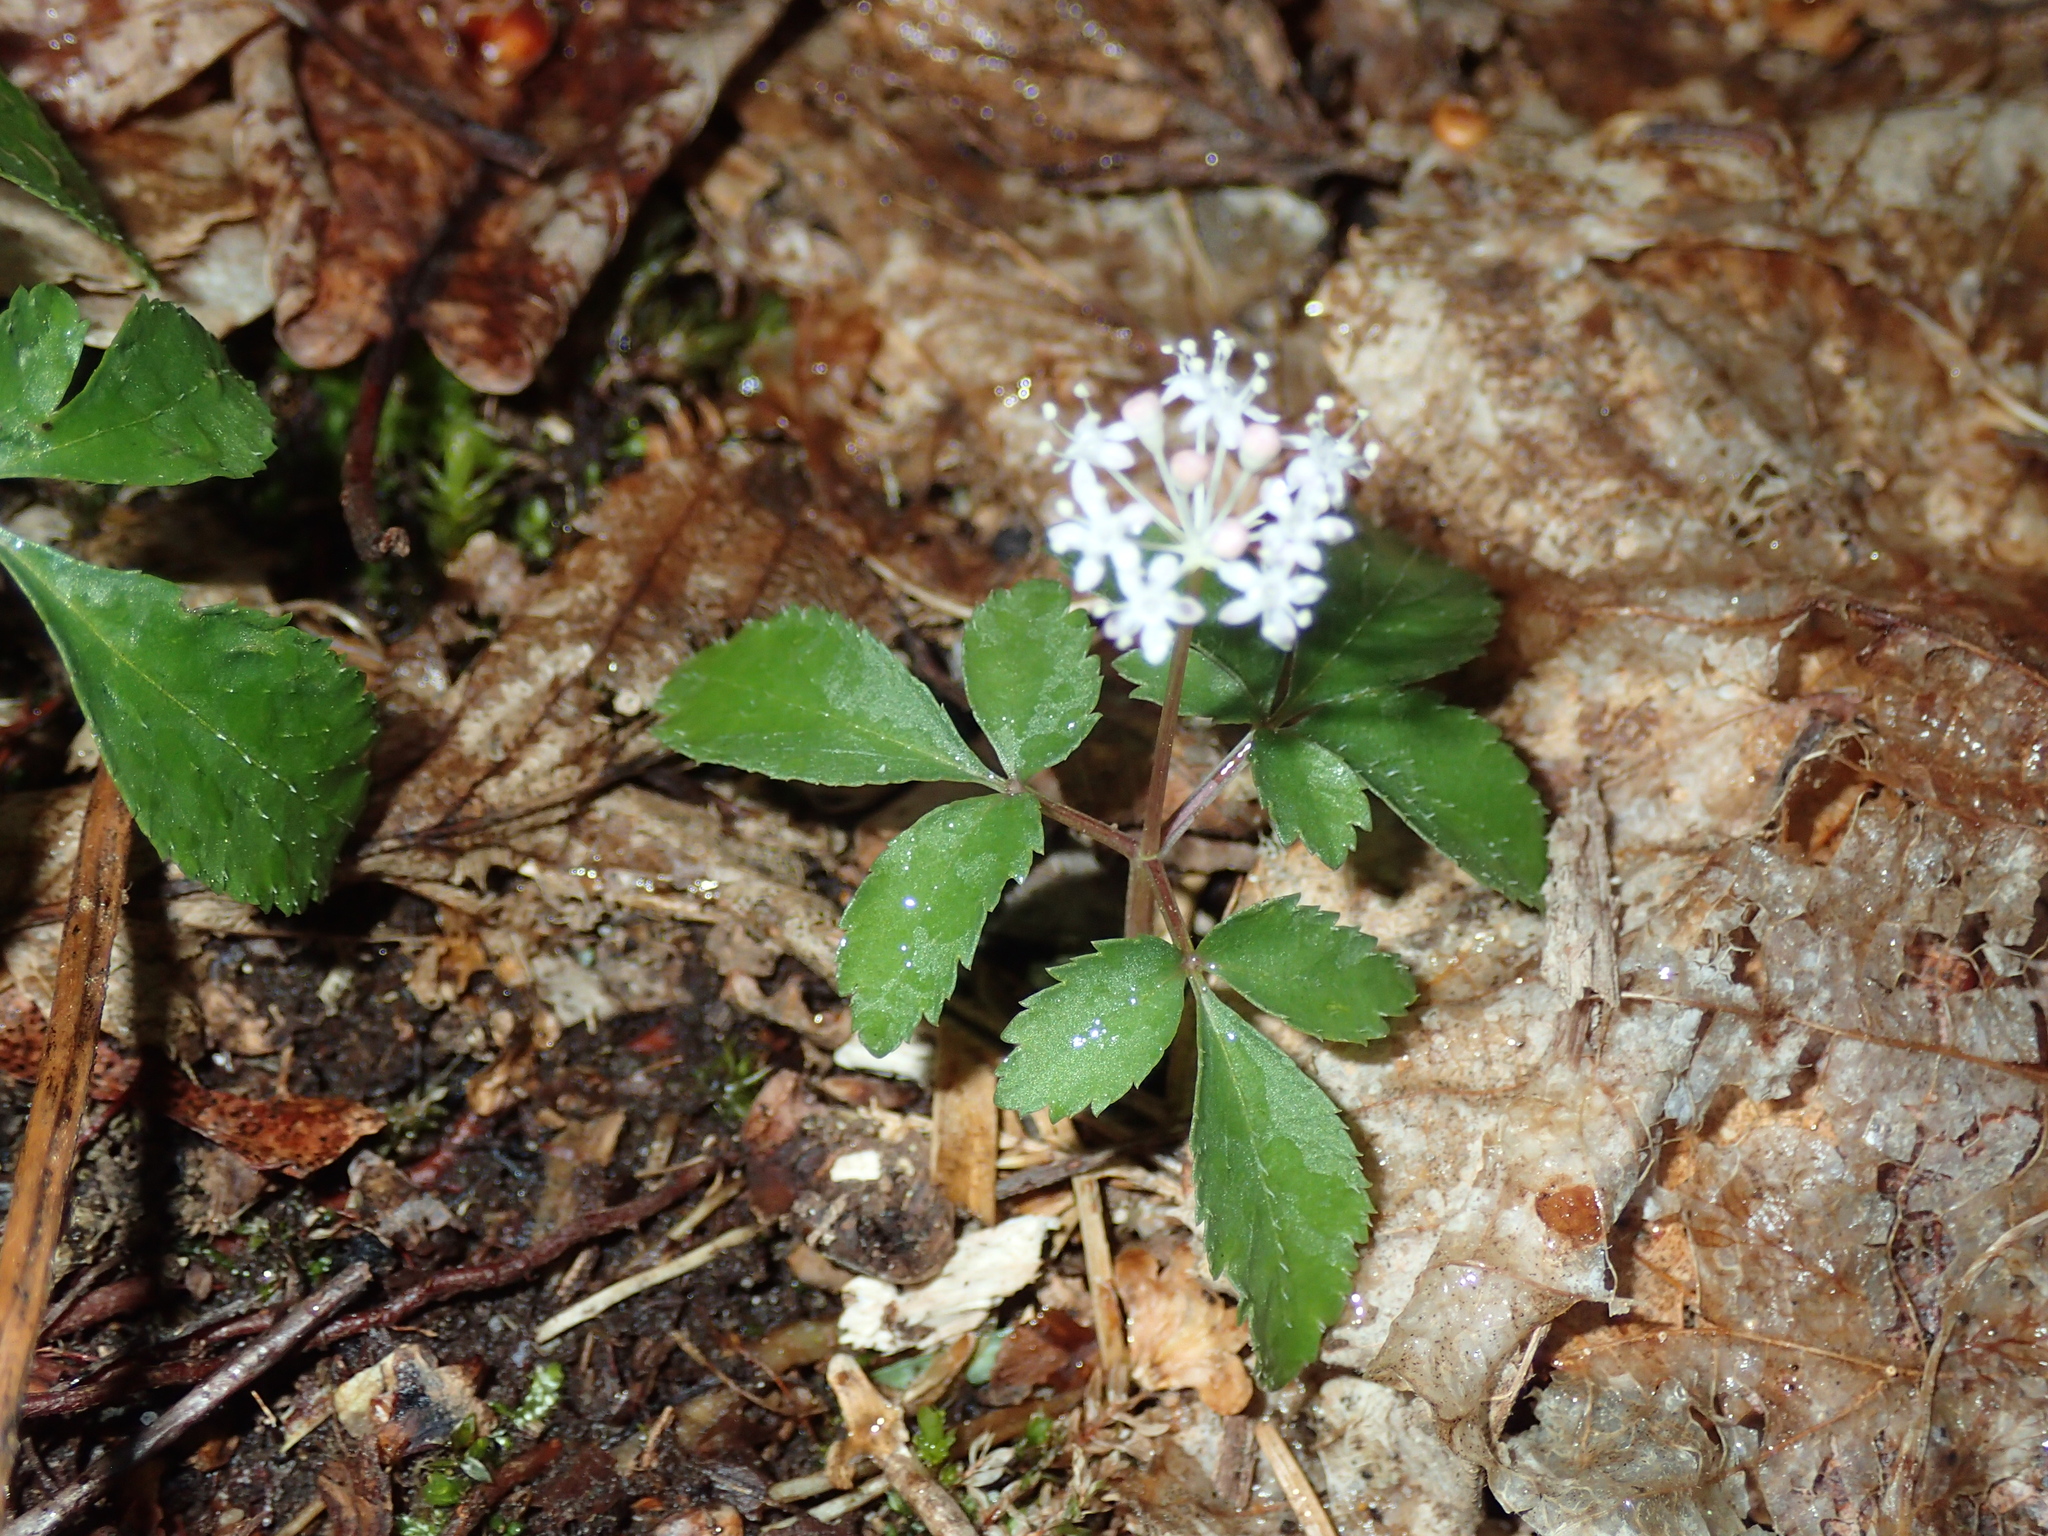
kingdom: Plantae
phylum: Tracheophyta
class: Magnoliopsida
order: Apiales
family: Araliaceae
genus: Panax
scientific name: Panax trifolius
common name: Dwarf ginseng
